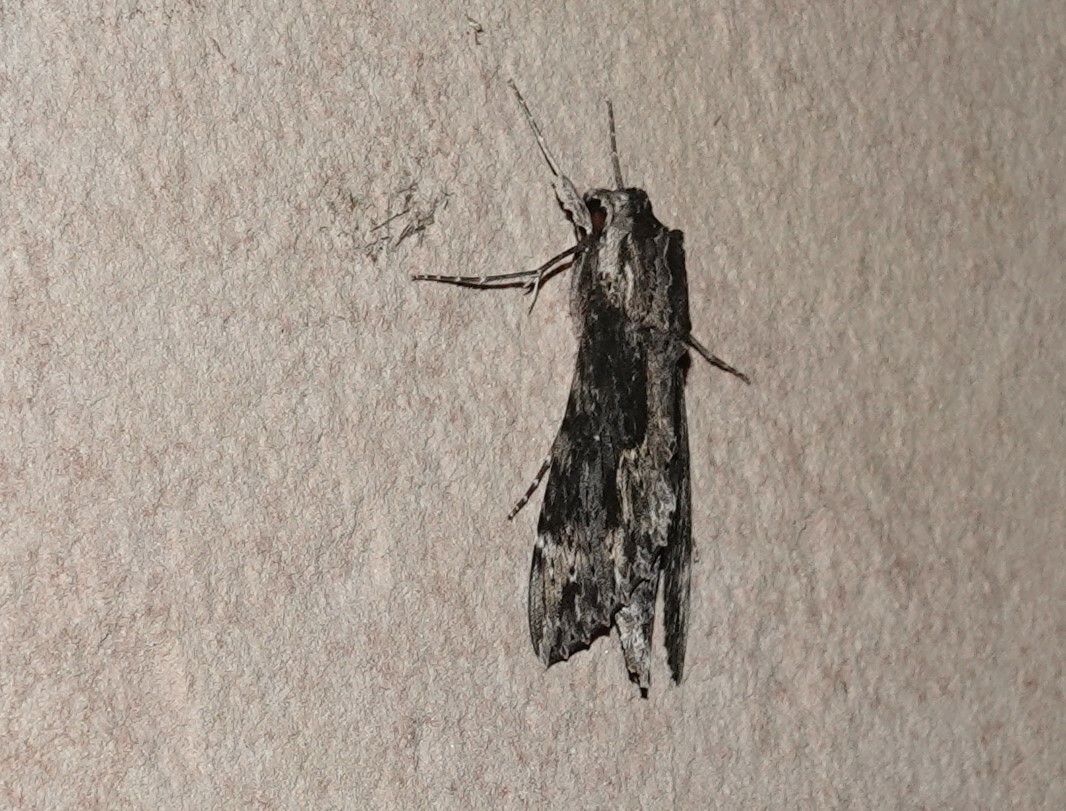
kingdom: Animalia
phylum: Arthropoda
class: Insecta
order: Lepidoptera
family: Sphingidae
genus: Erinnyis
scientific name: Erinnyis oenotrus
